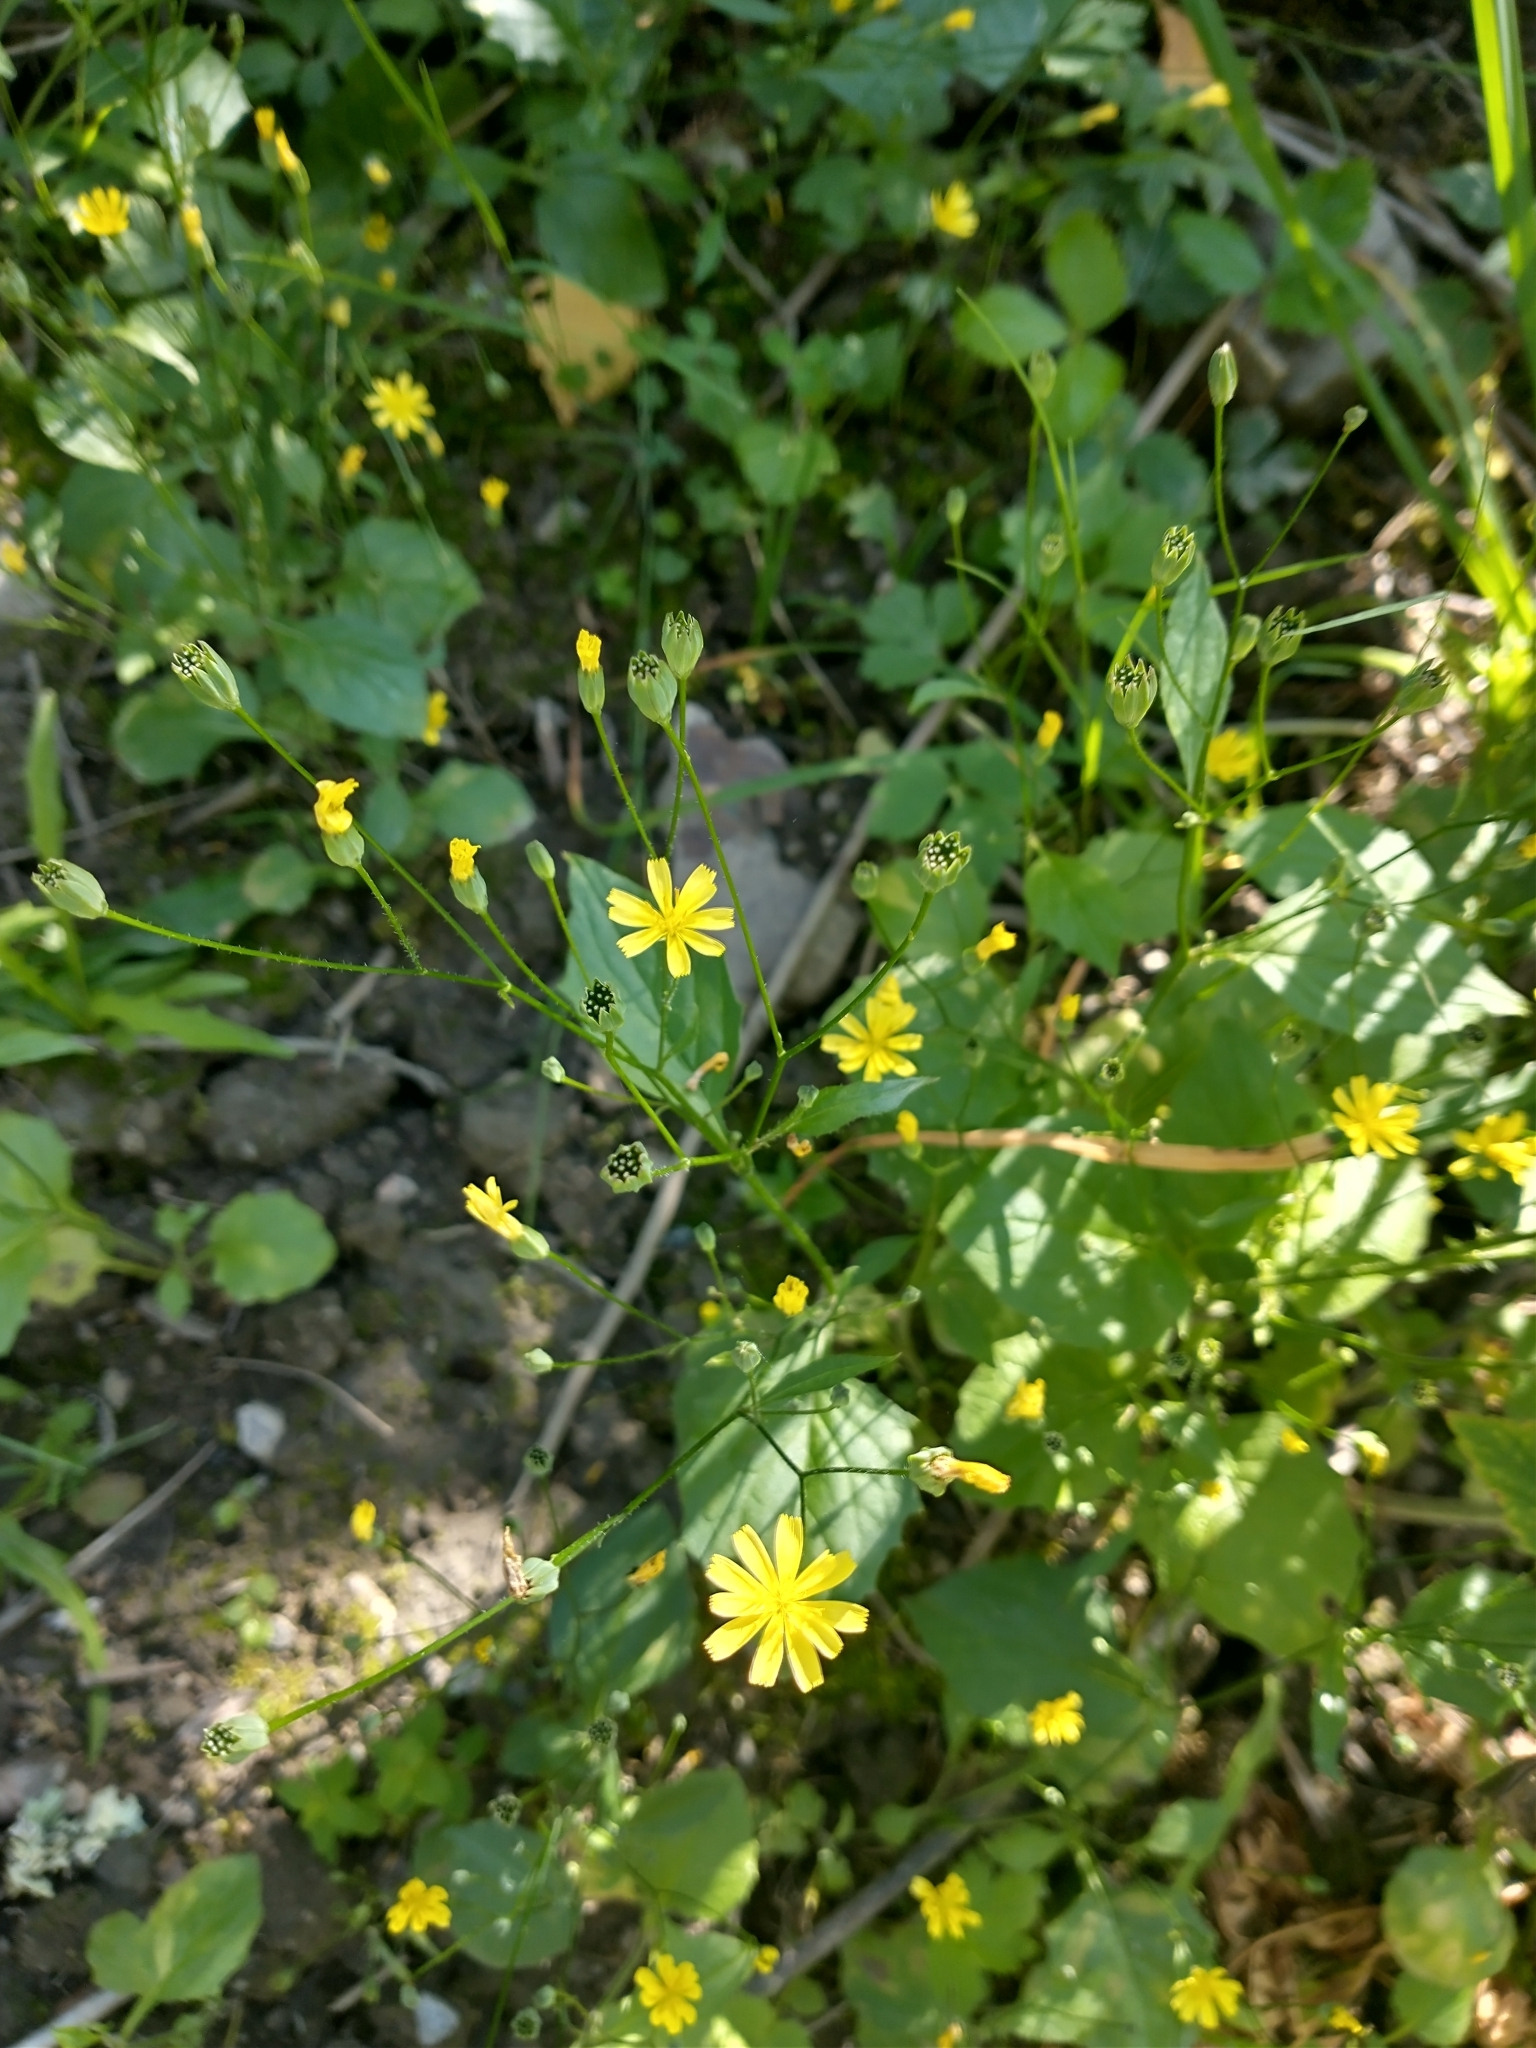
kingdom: Plantae
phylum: Tracheophyta
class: Magnoliopsida
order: Asterales
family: Asteraceae
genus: Lapsana
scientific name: Lapsana communis
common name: Nipplewort
